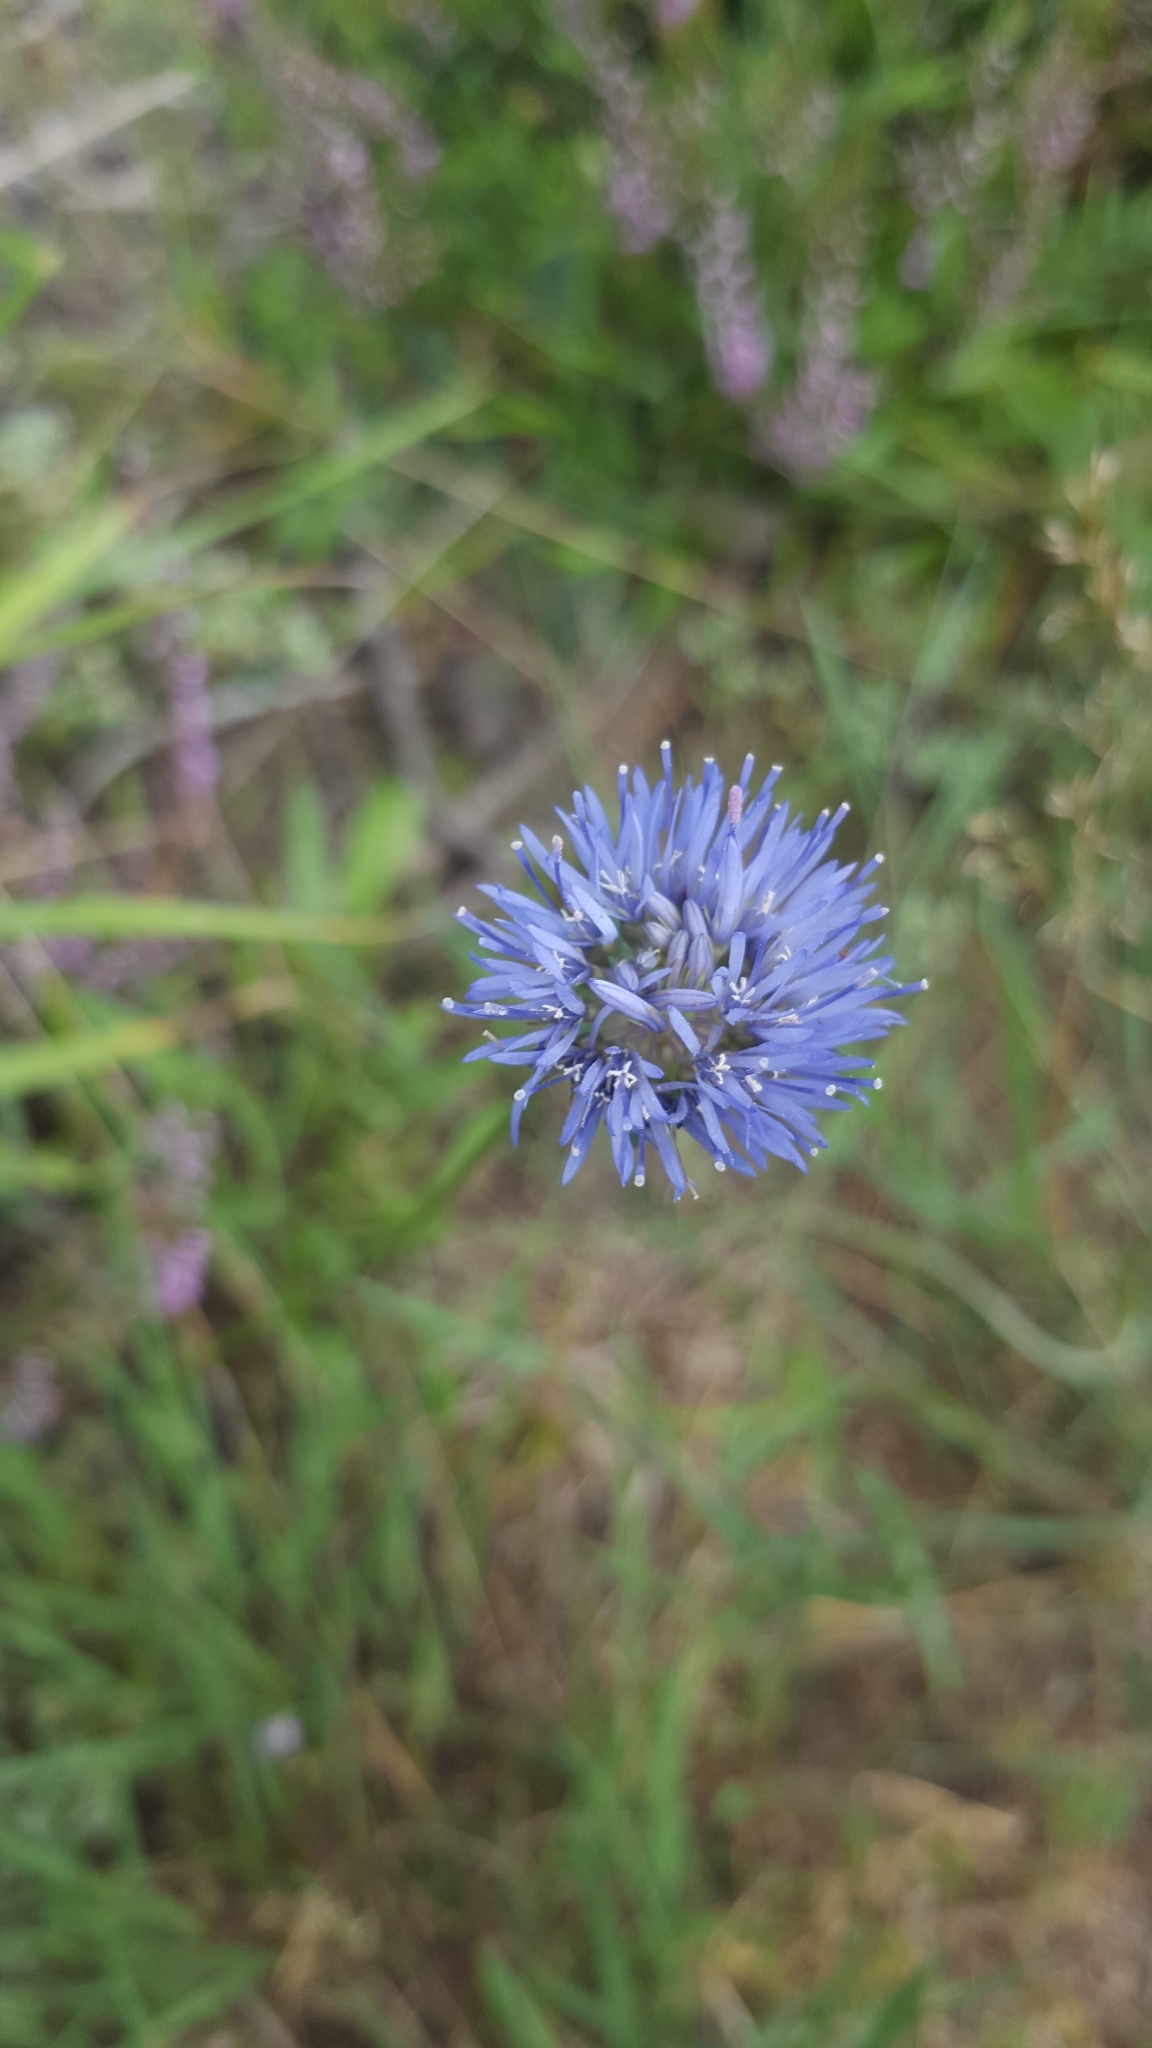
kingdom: Plantae
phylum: Tracheophyta
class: Magnoliopsida
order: Asterales
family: Campanulaceae
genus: Jasione
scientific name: Jasione montana
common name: Sheep's-bit
